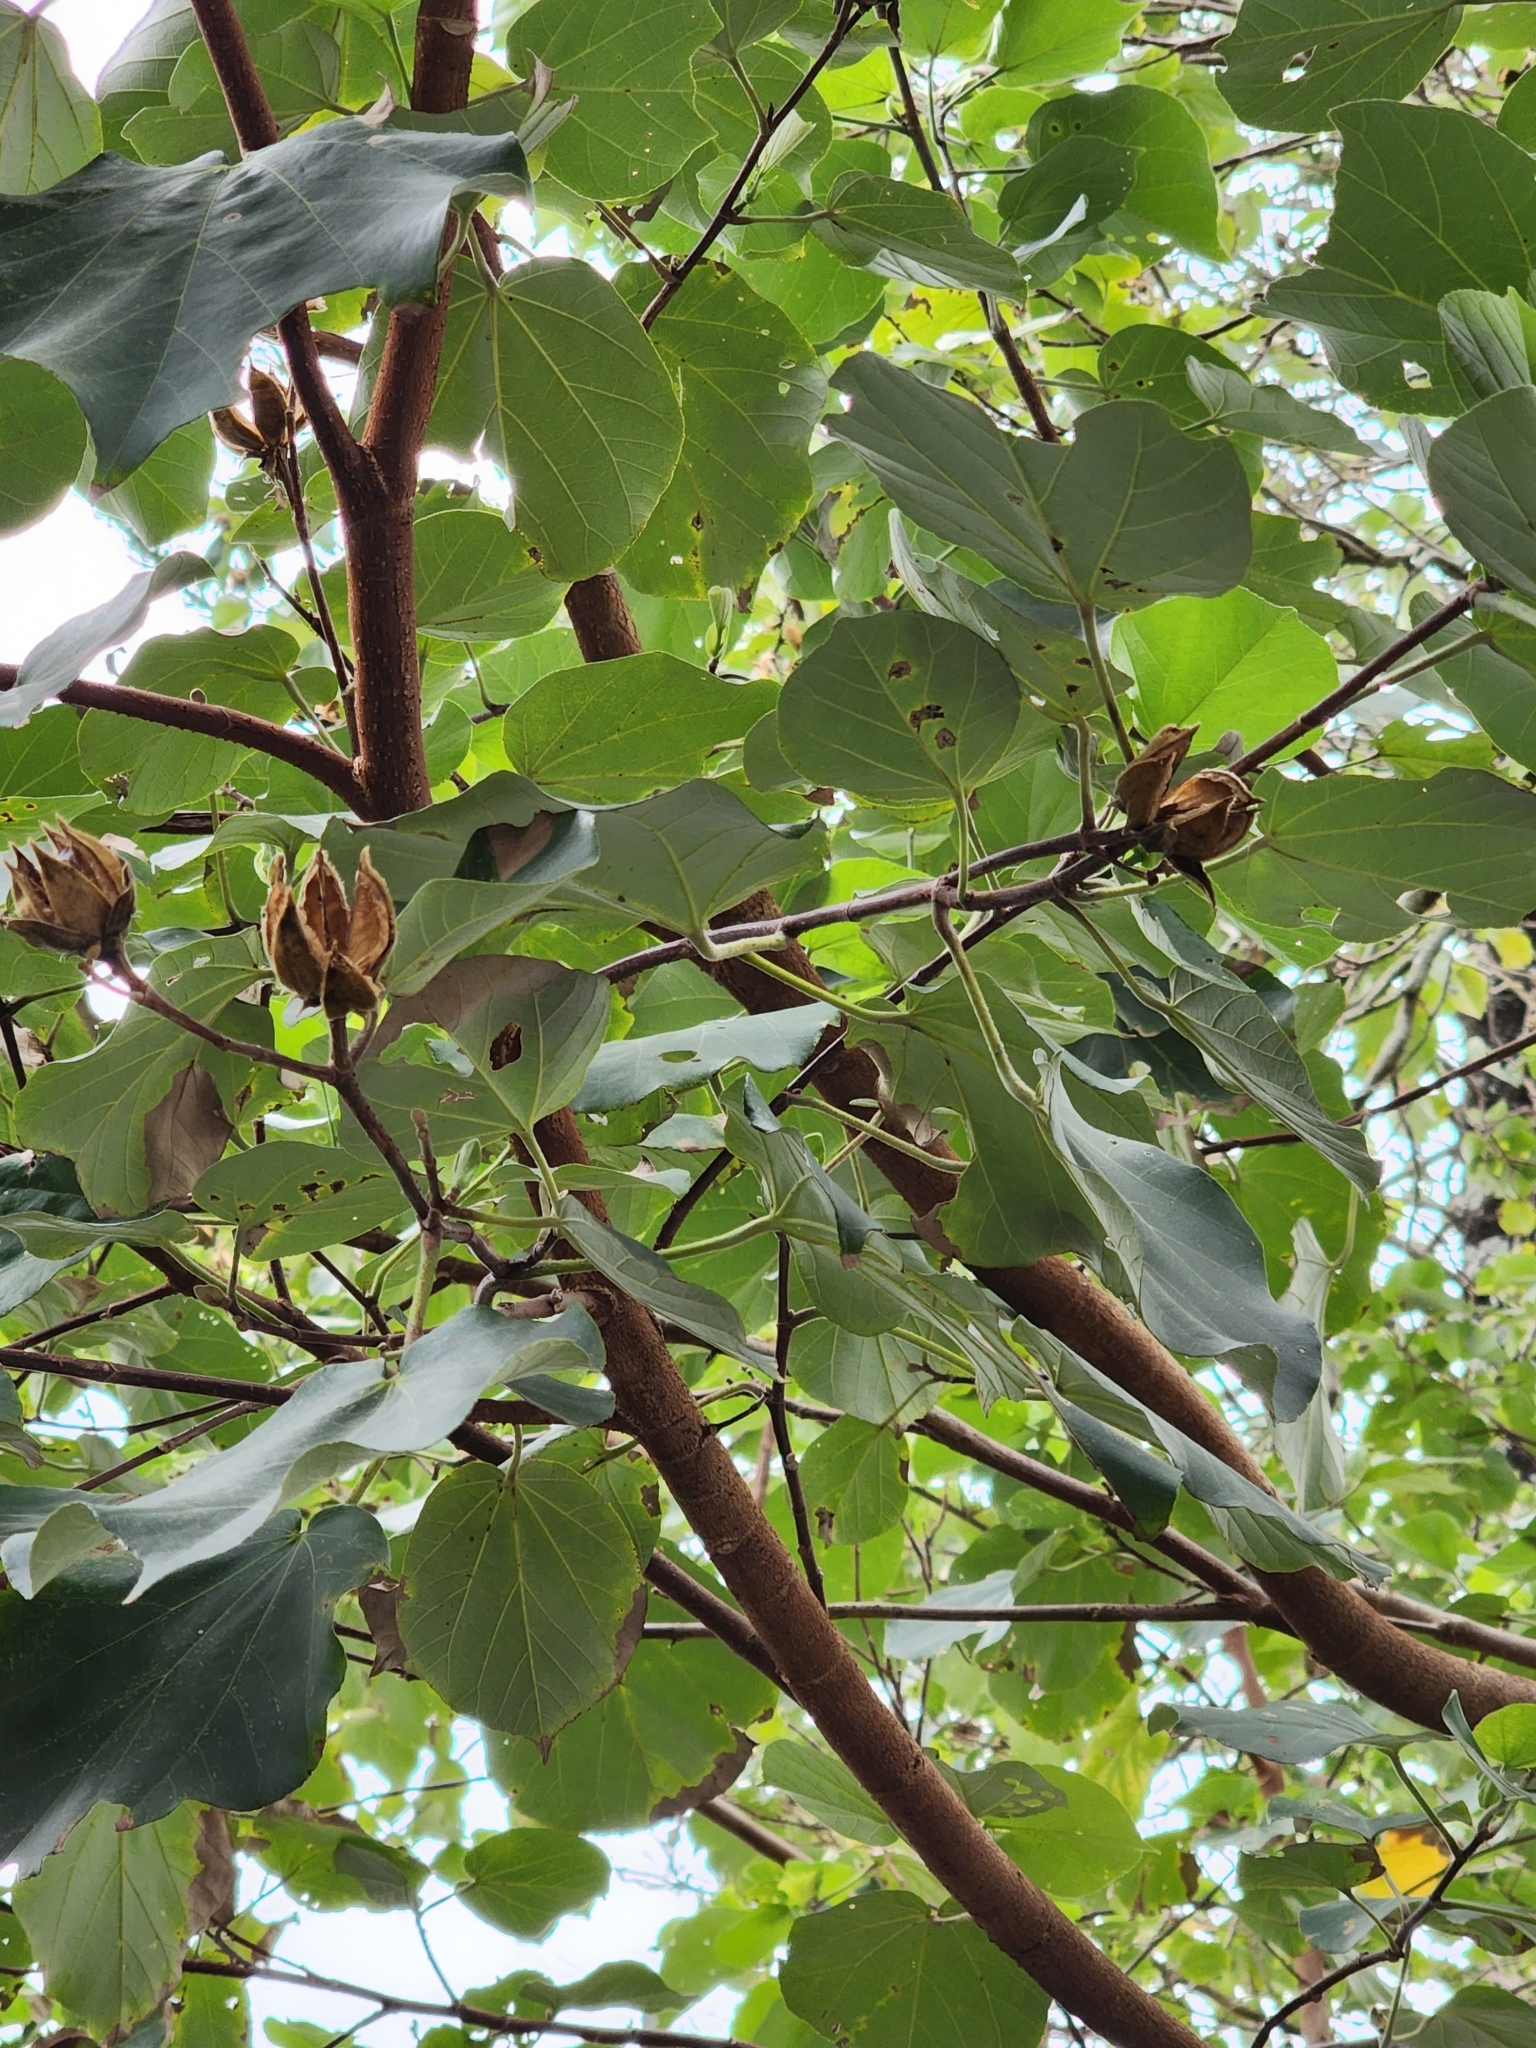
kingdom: Plantae
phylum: Tracheophyta
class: Magnoliopsida
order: Malvales
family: Malvaceae
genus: Talipariti
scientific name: Talipariti tiliaceum
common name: Sea hibiscus
